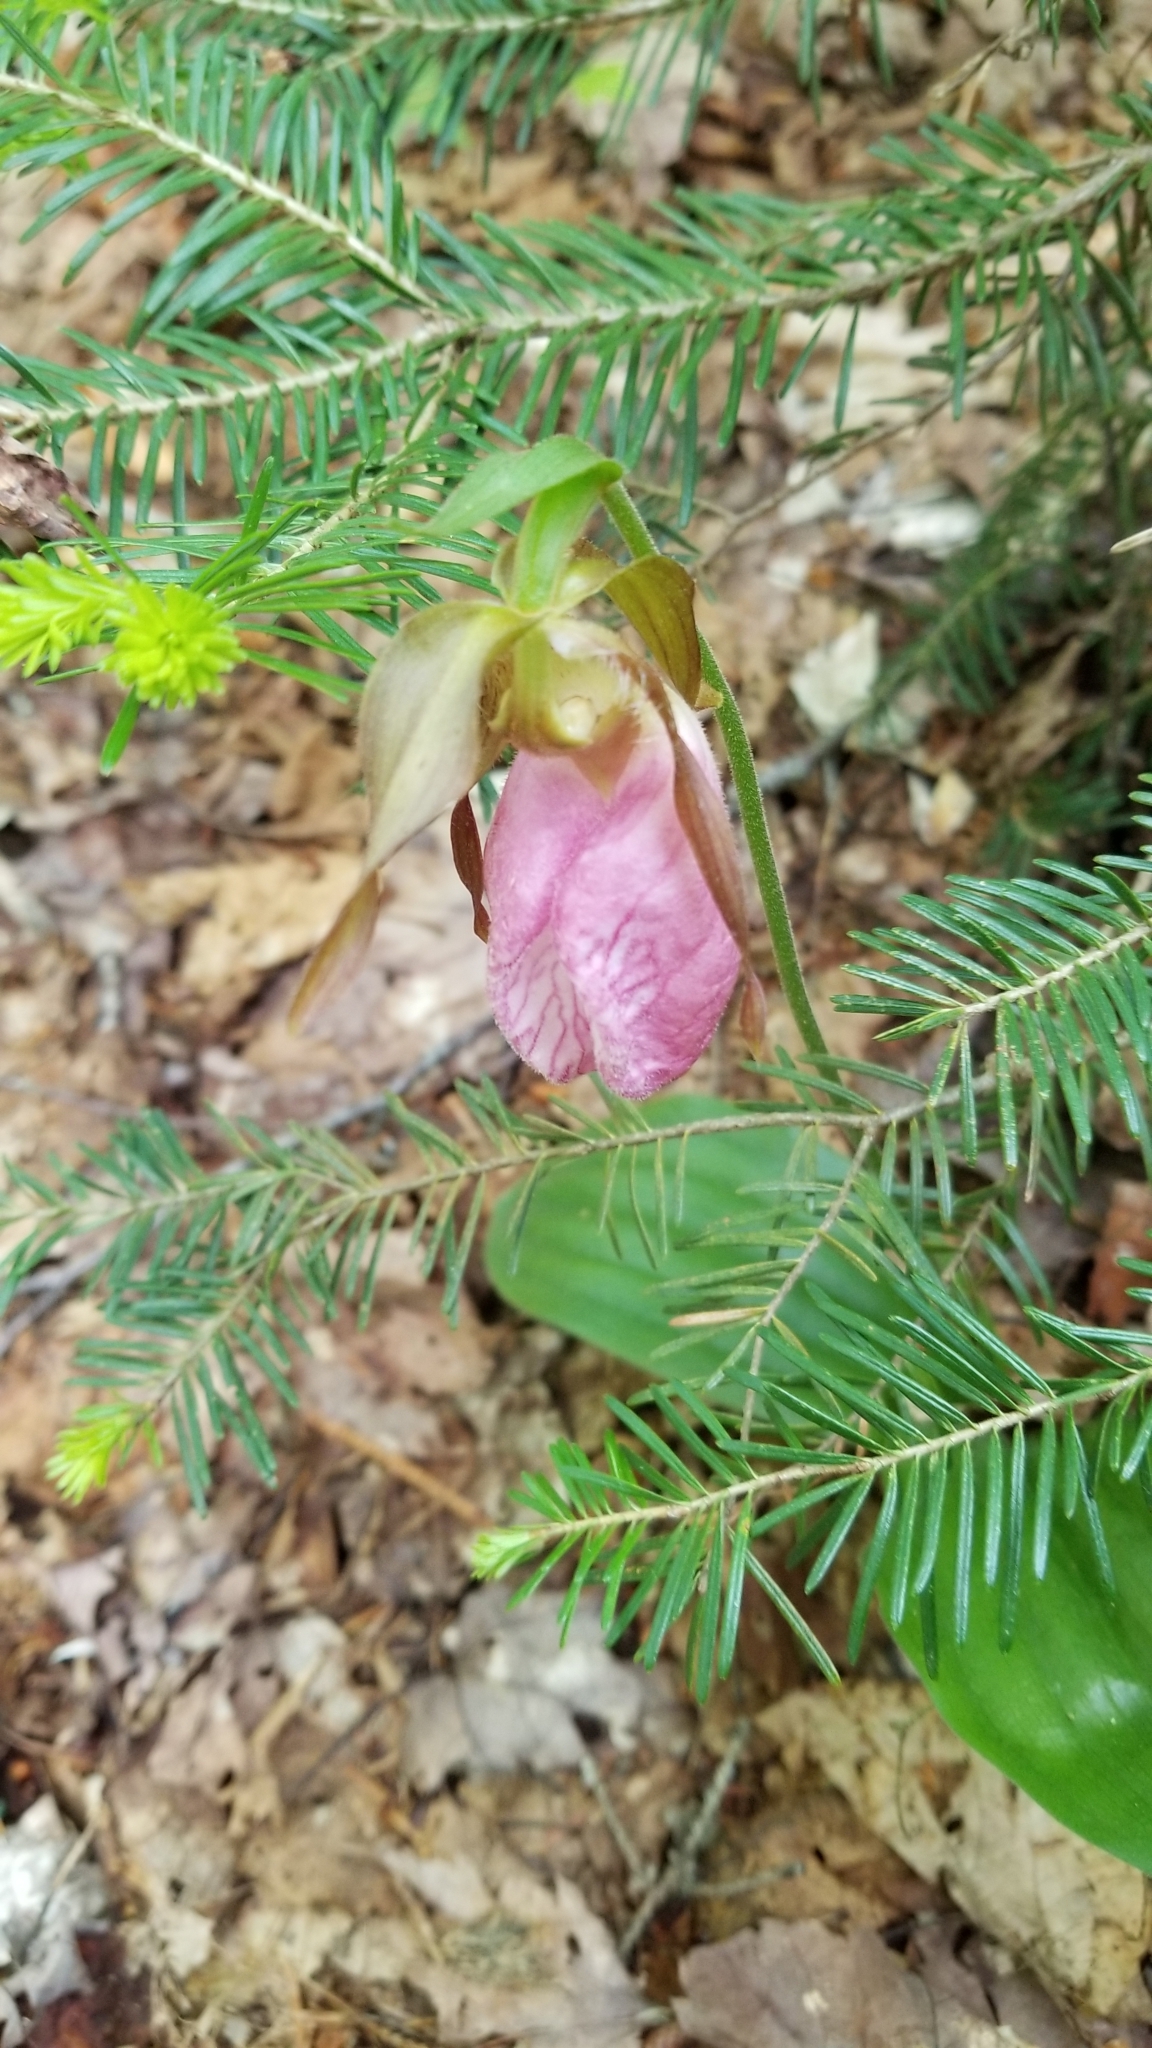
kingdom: Plantae
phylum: Tracheophyta
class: Liliopsida
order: Asparagales
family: Orchidaceae
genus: Cypripedium
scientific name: Cypripedium acaule
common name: Pink lady's-slipper
